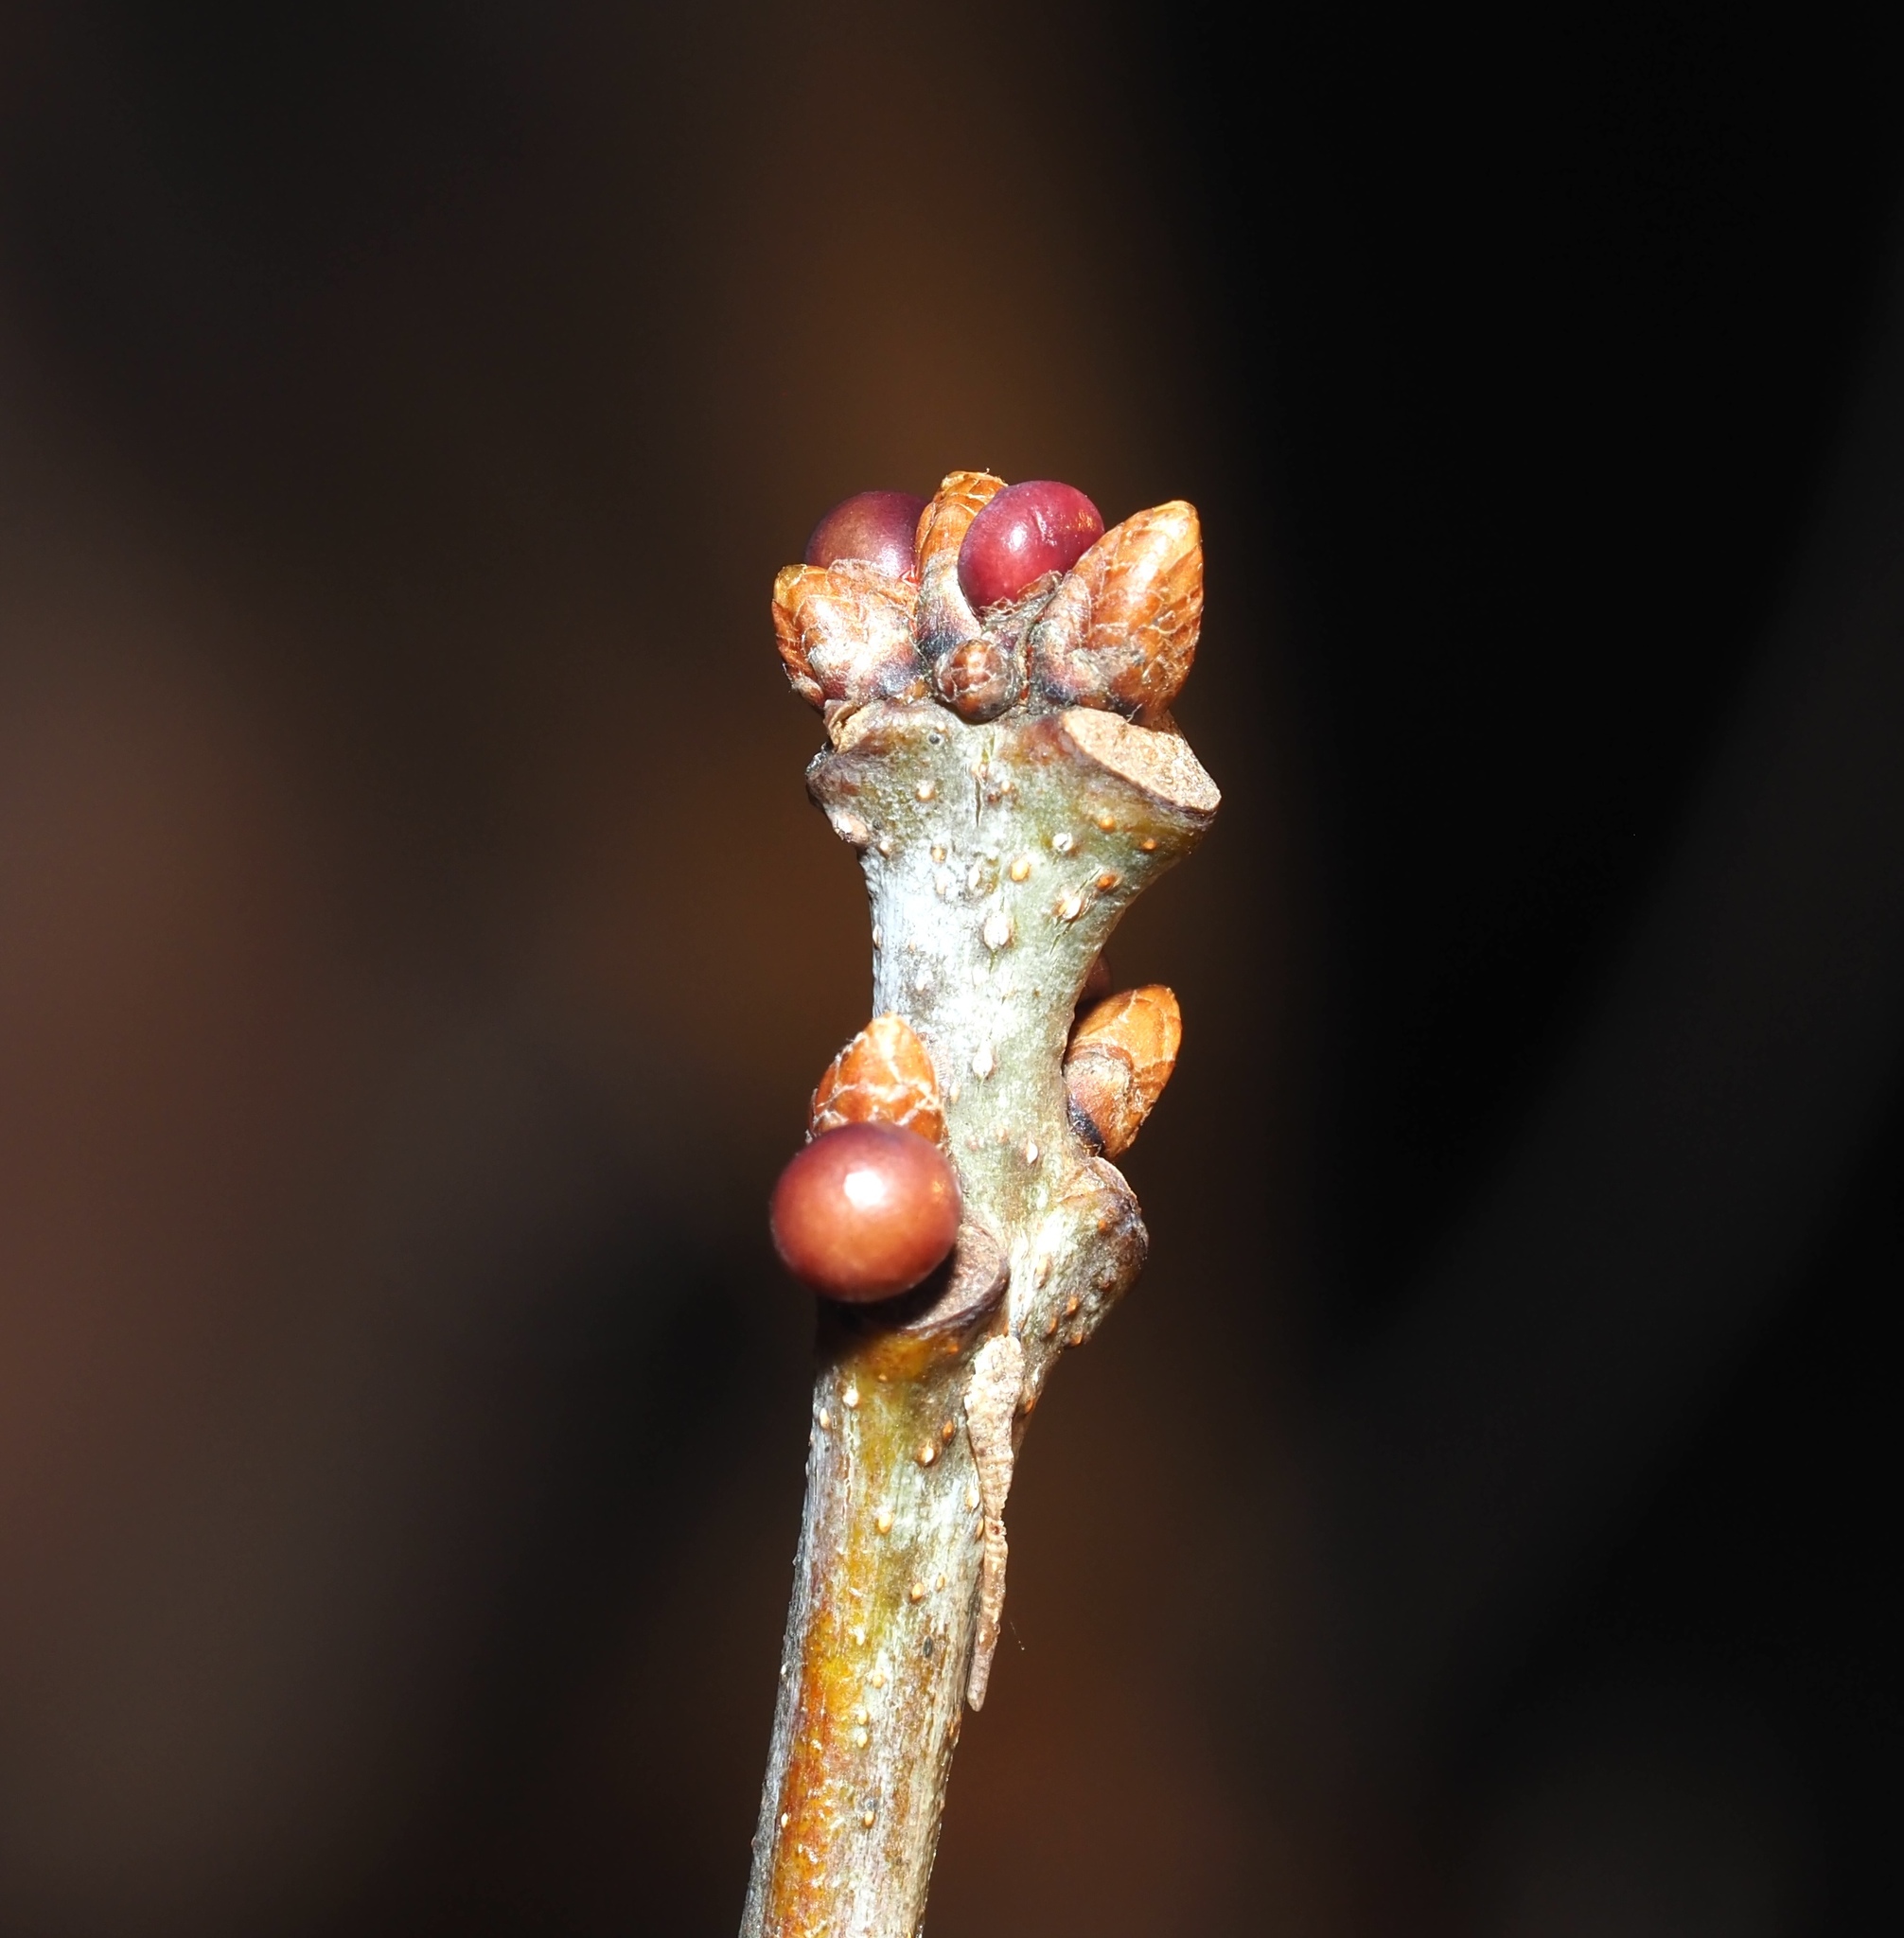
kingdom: Animalia
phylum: Arthropoda
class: Insecta
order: Hymenoptera
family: Cynipidae
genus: Neuroterus
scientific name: Neuroterus
